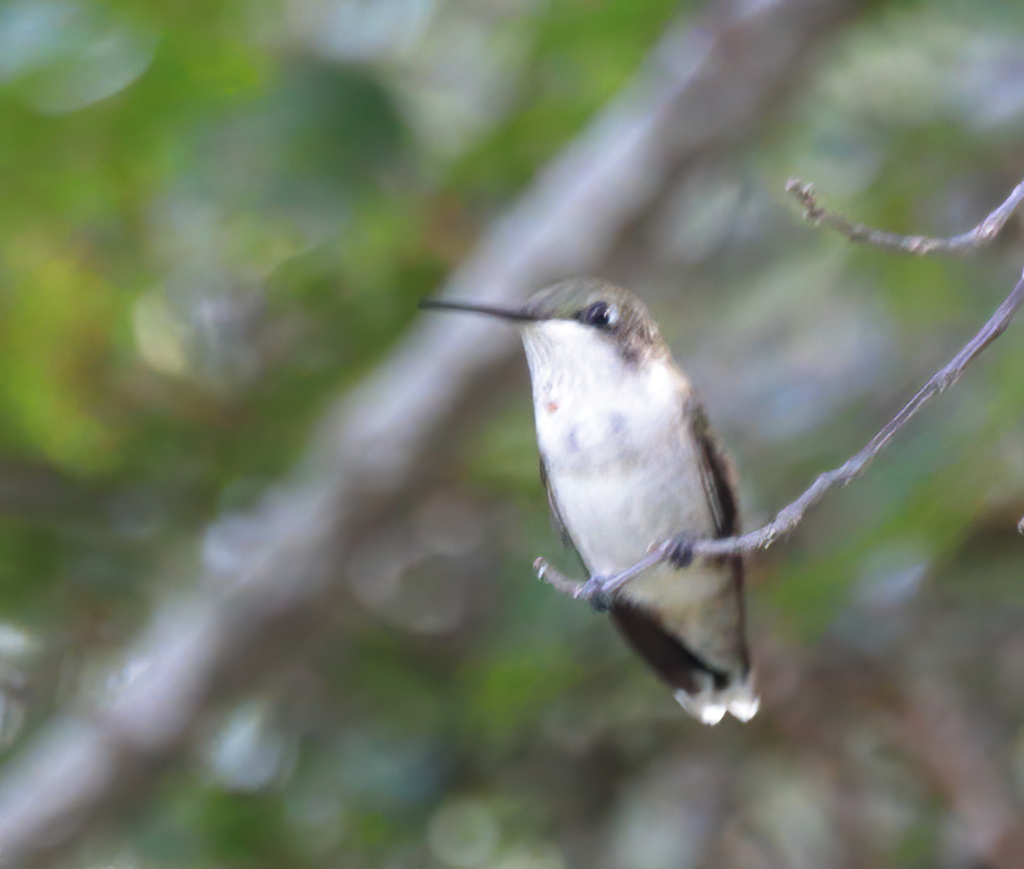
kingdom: Animalia
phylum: Chordata
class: Aves
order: Apodiformes
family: Trochilidae
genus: Archilochus
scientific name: Archilochus colubris
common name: Ruby-throated hummingbird
